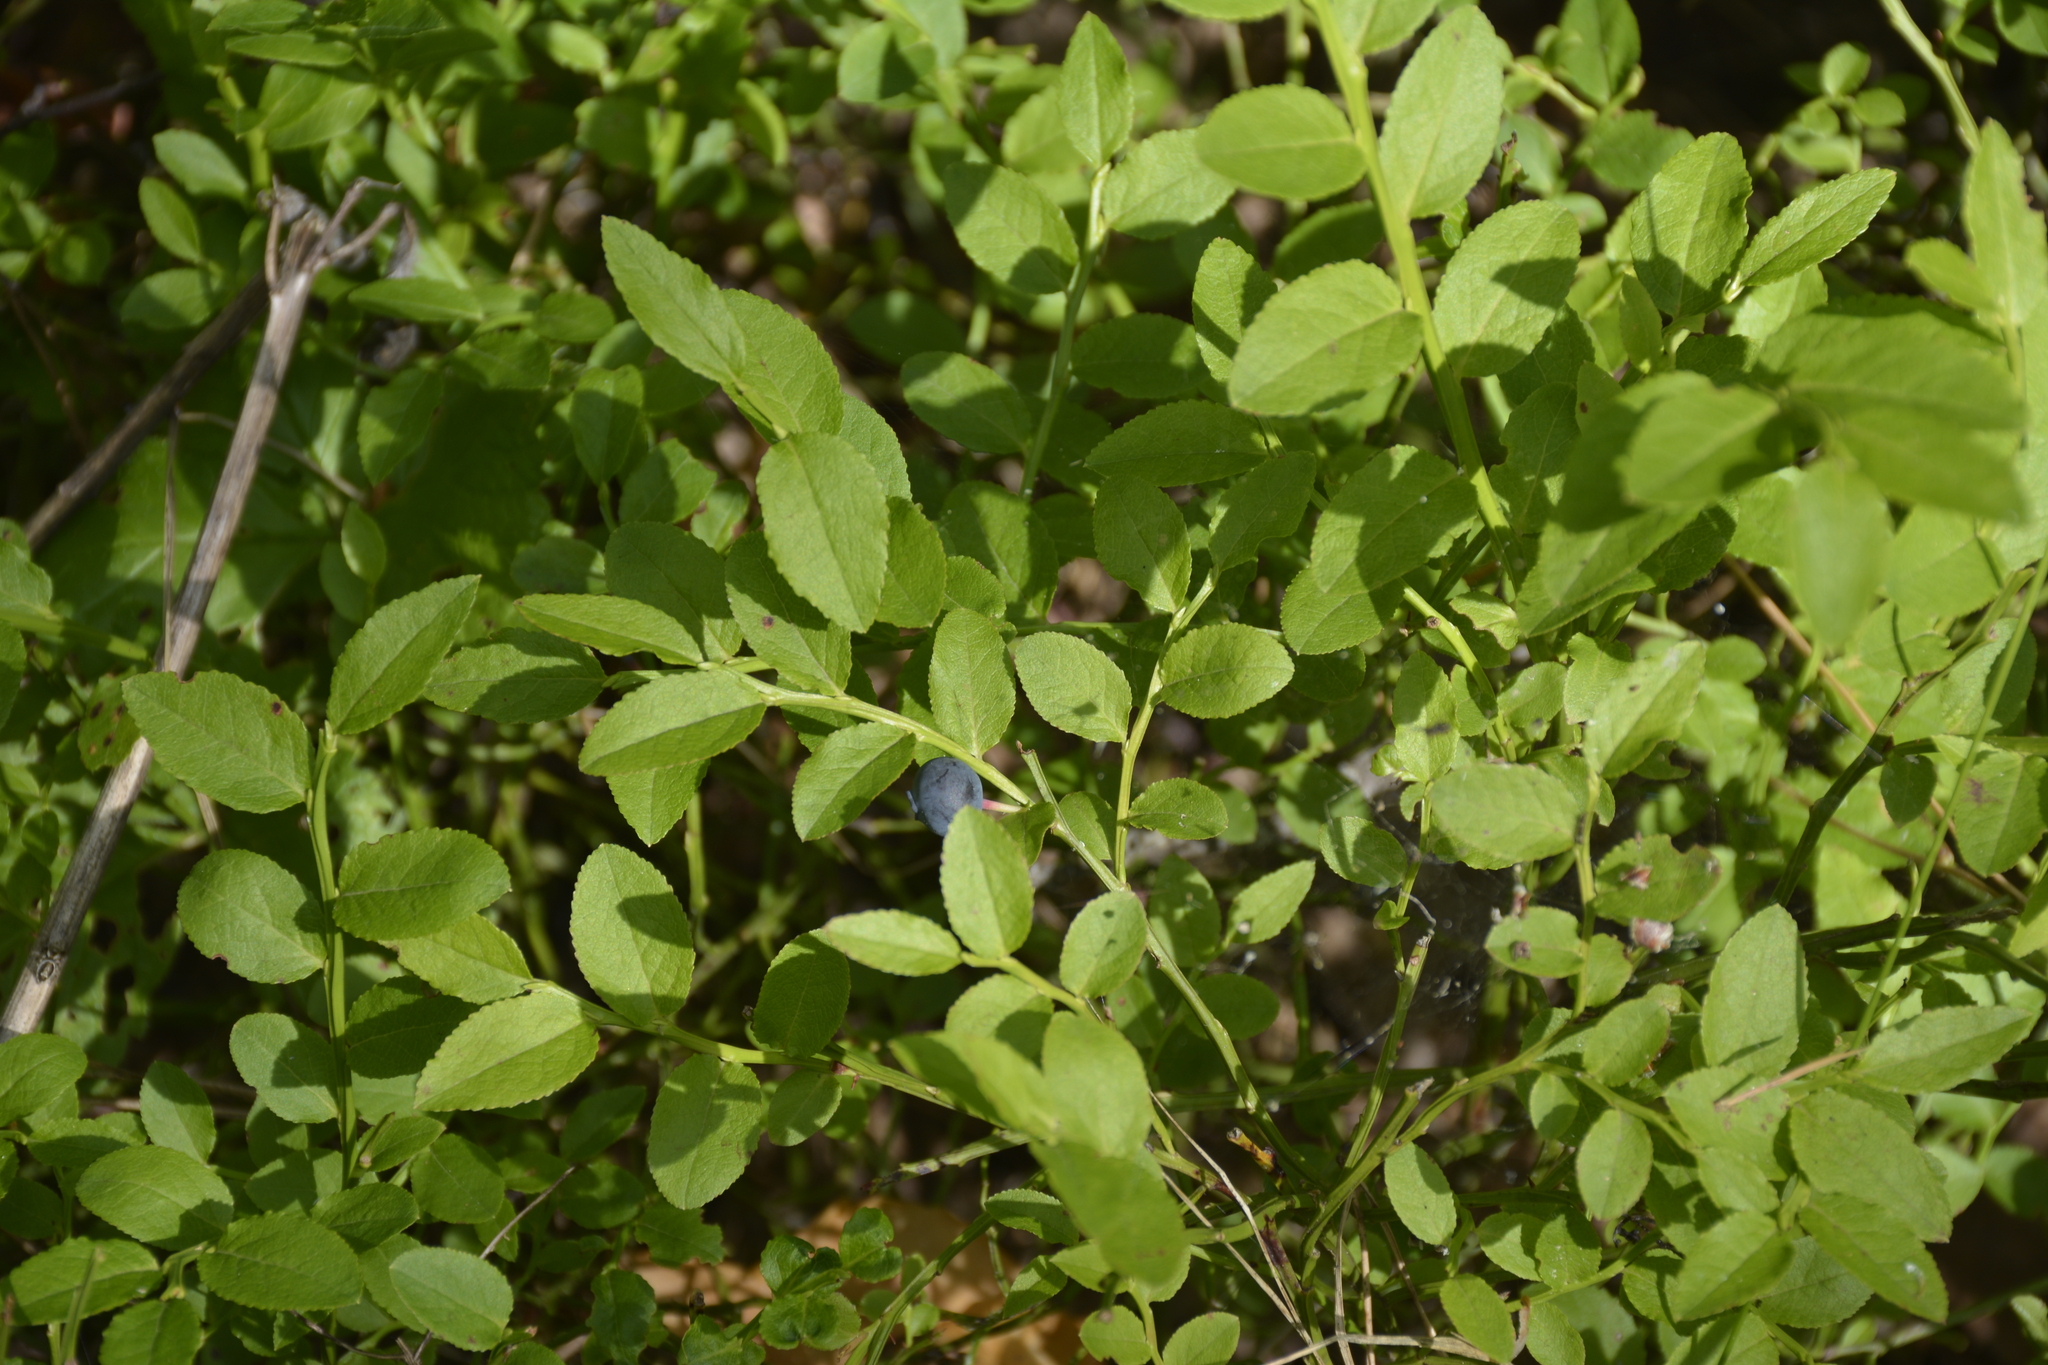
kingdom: Plantae
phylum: Tracheophyta
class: Magnoliopsida
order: Ericales
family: Ericaceae
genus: Vaccinium
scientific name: Vaccinium myrtillus
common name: Bilberry
